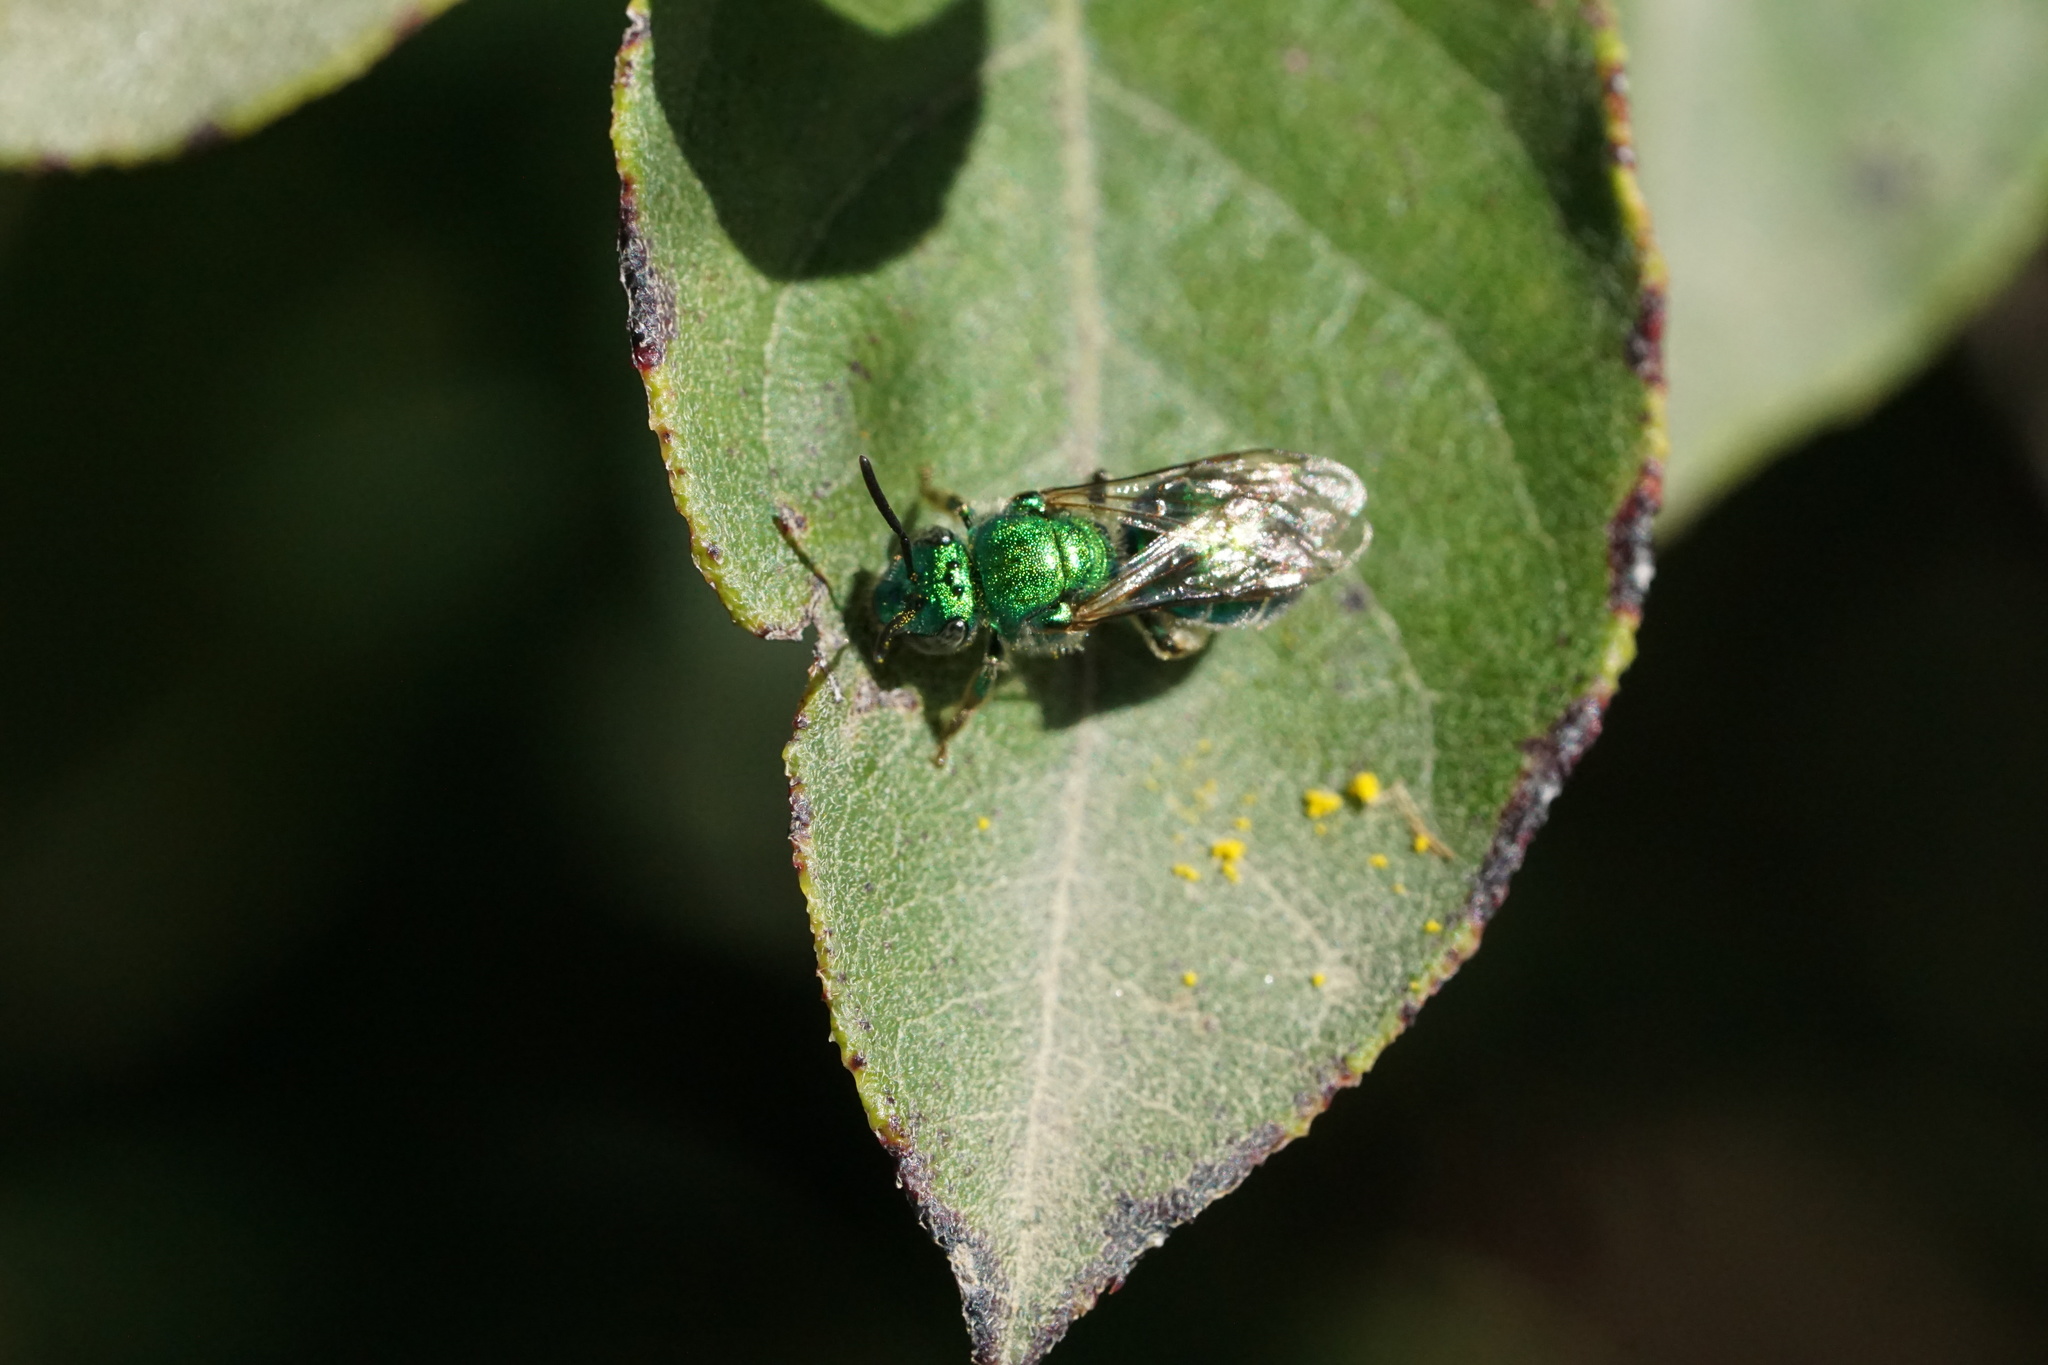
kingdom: Animalia
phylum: Arthropoda
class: Insecta
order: Hymenoptera
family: Halictidae
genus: Augochloropsis
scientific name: Augochloropsis viridula
